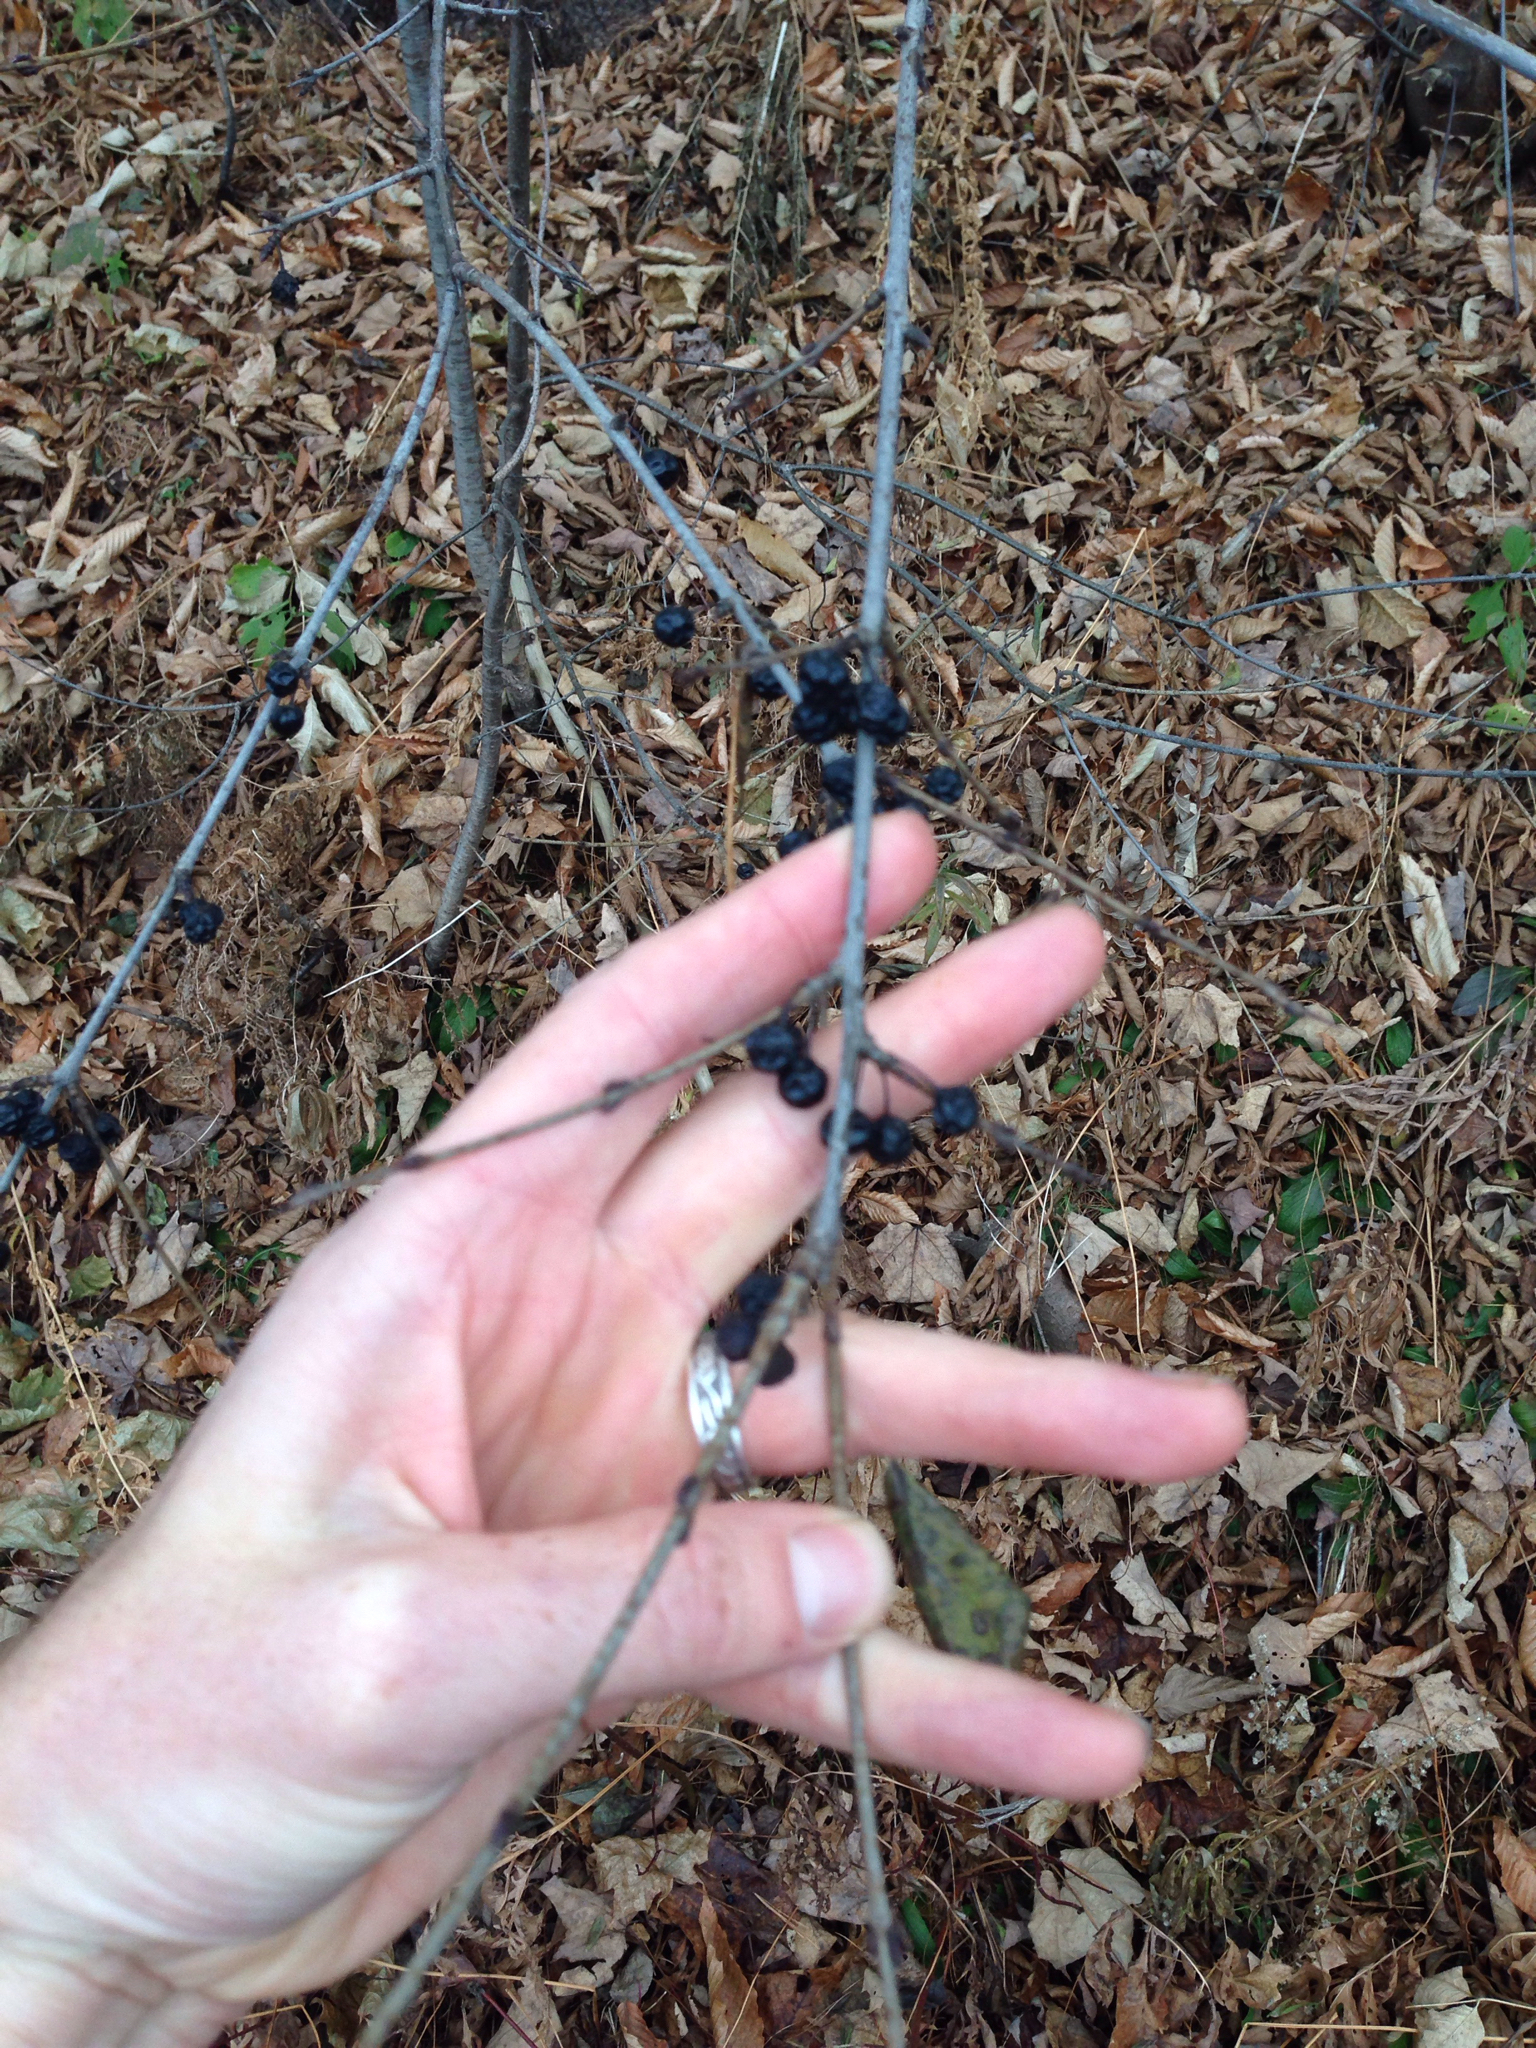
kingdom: Plantae
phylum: Tracheophyta
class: Magnoliopsida
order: Rosales
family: Rhamnaceae
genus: Rhamnus
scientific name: Rhamnus cathartica
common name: Common buckthorn
